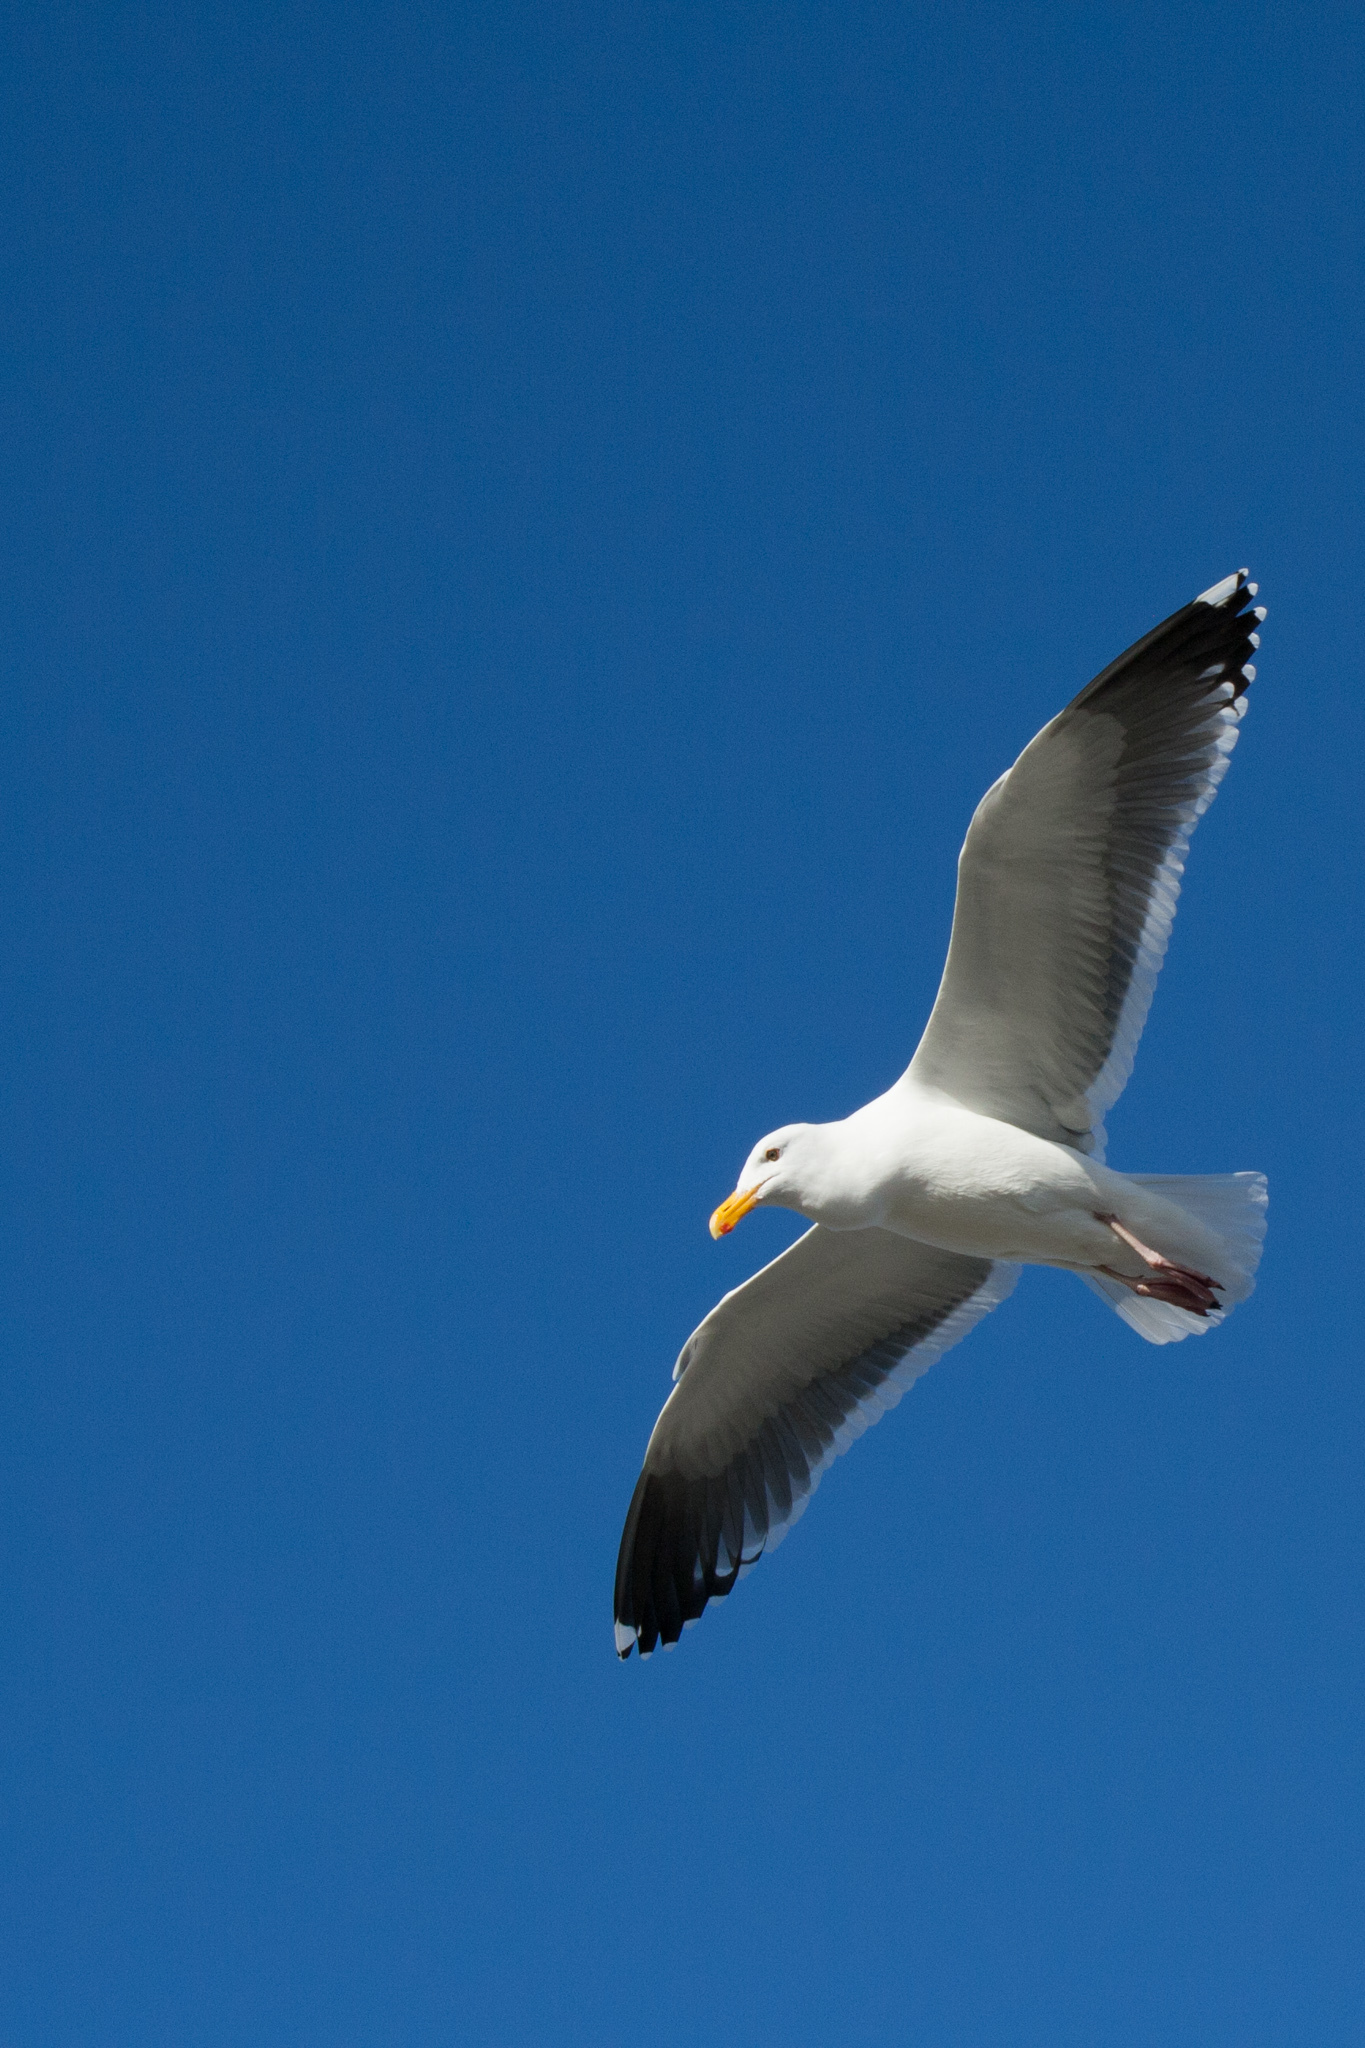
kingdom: Animalia
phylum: Chordata
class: Aves
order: Charadriiformes
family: Laridae
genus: Larus
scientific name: Larus occidentalis
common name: Western gull
